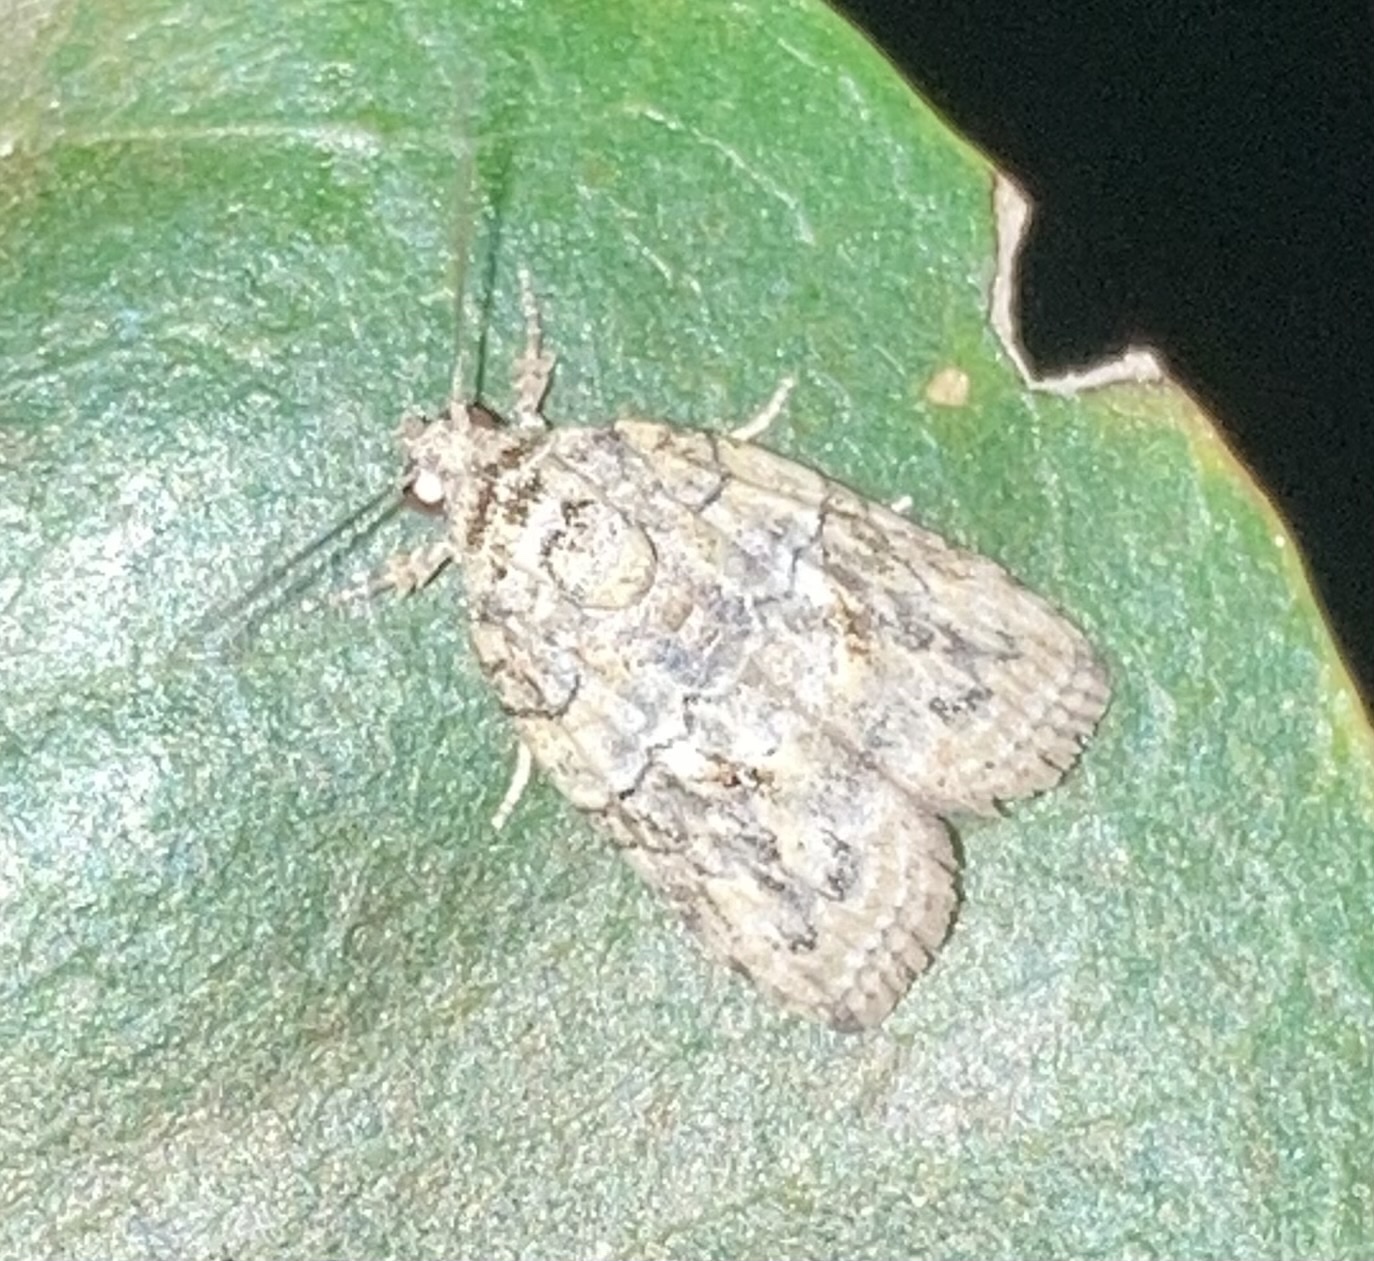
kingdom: Animalia
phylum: Arthropoda
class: Insecta
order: Lepidoptera
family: Nolidae
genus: Garella
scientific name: Garella nilotica
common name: Black-olive caterpillar moth
